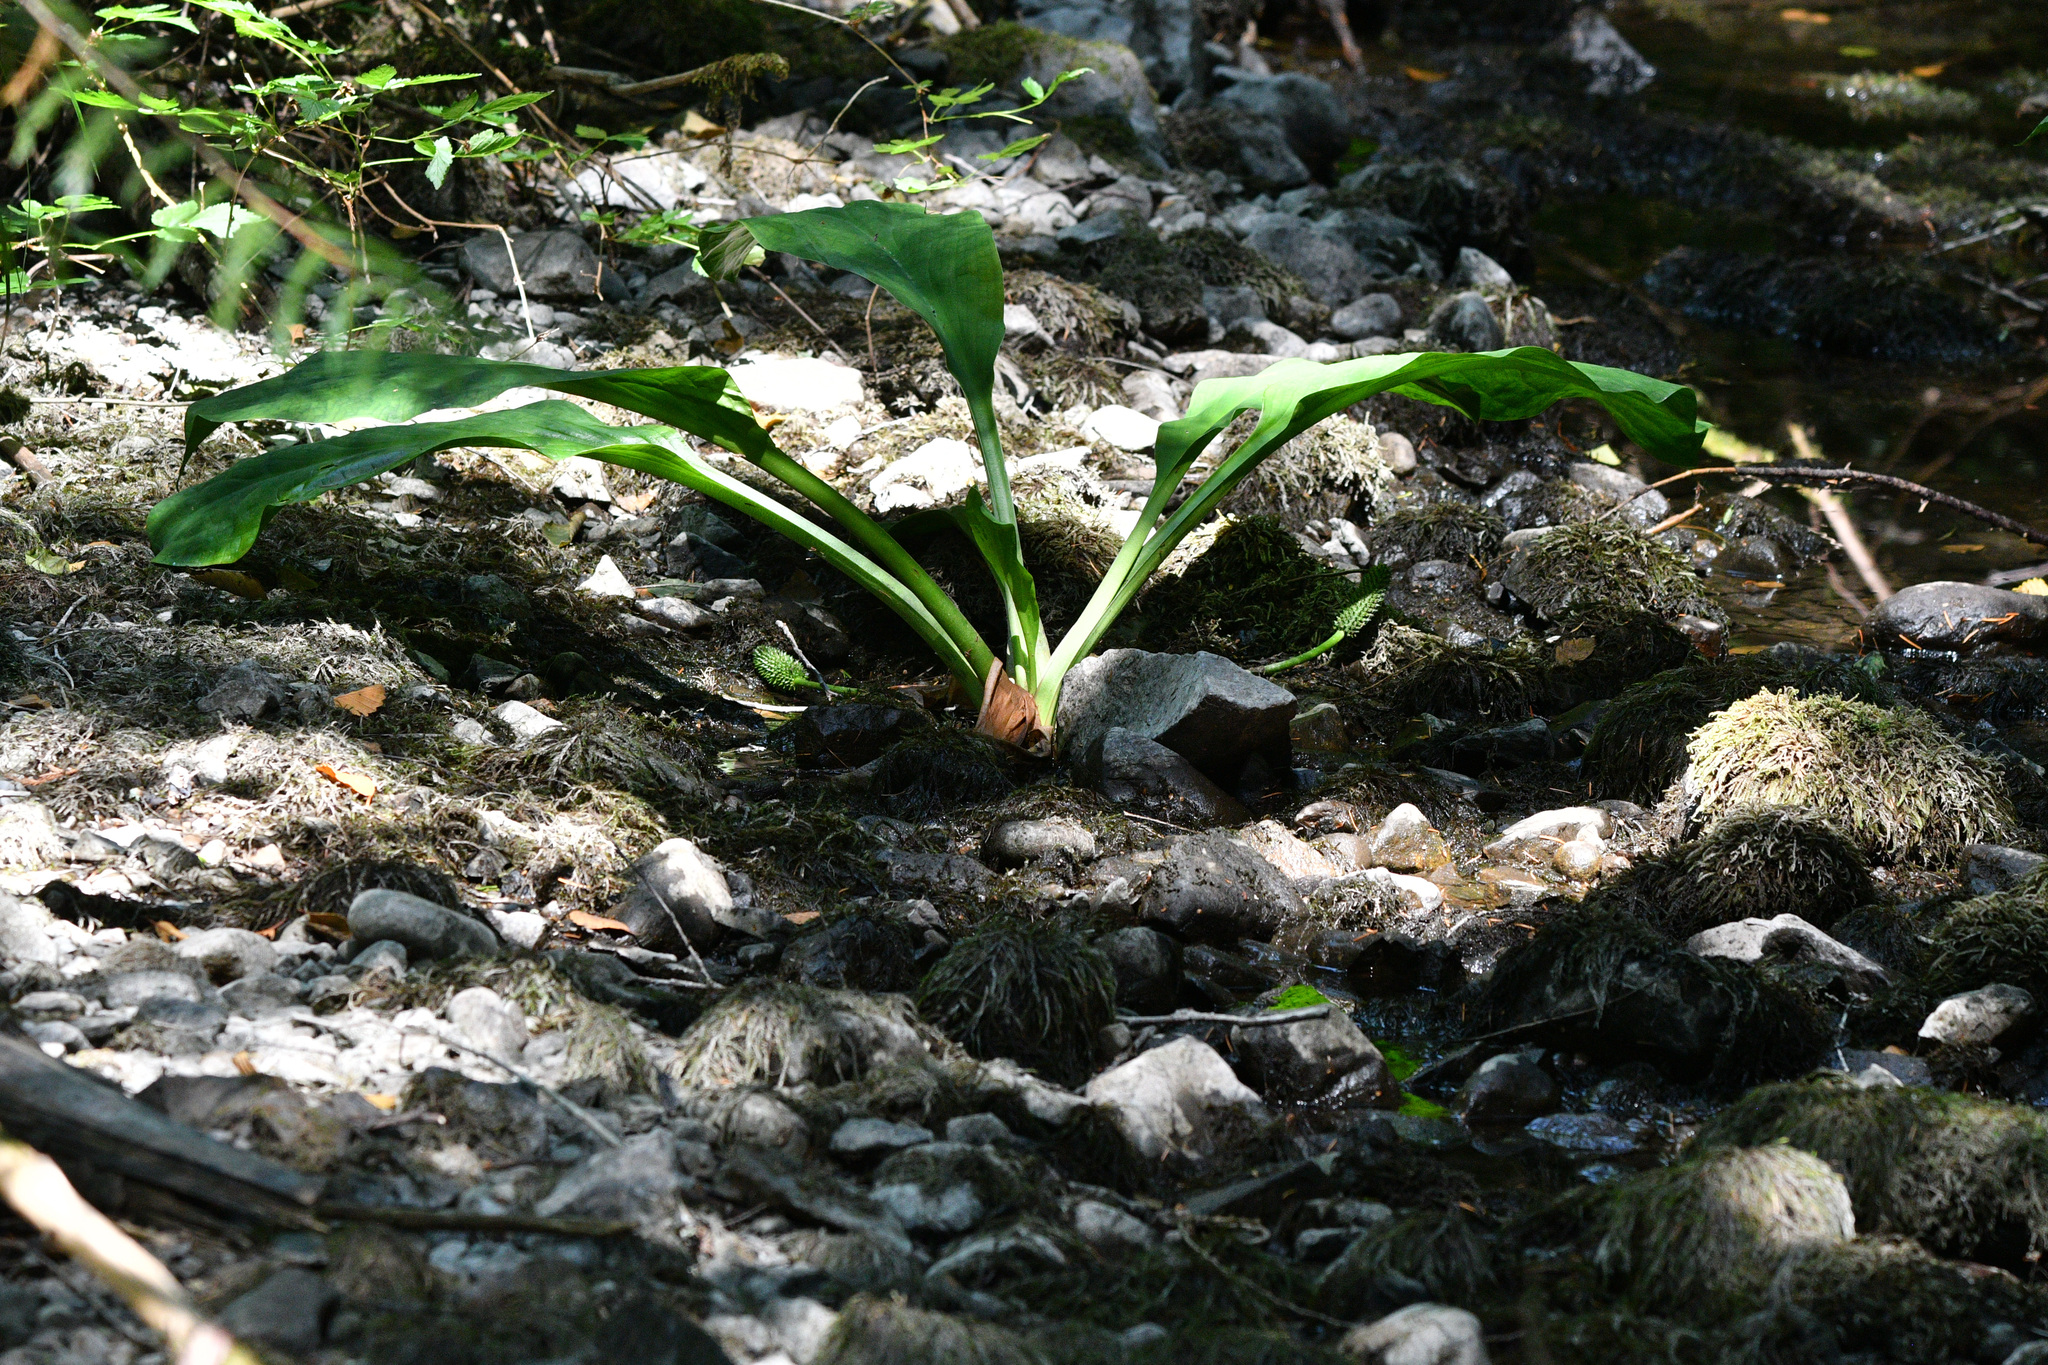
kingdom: Plantae
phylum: Tracheophyta
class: Liliopsida
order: Alismatales
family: Araceae
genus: Lysichiton
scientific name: Lysichiton americanus
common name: American skunk cabbage
